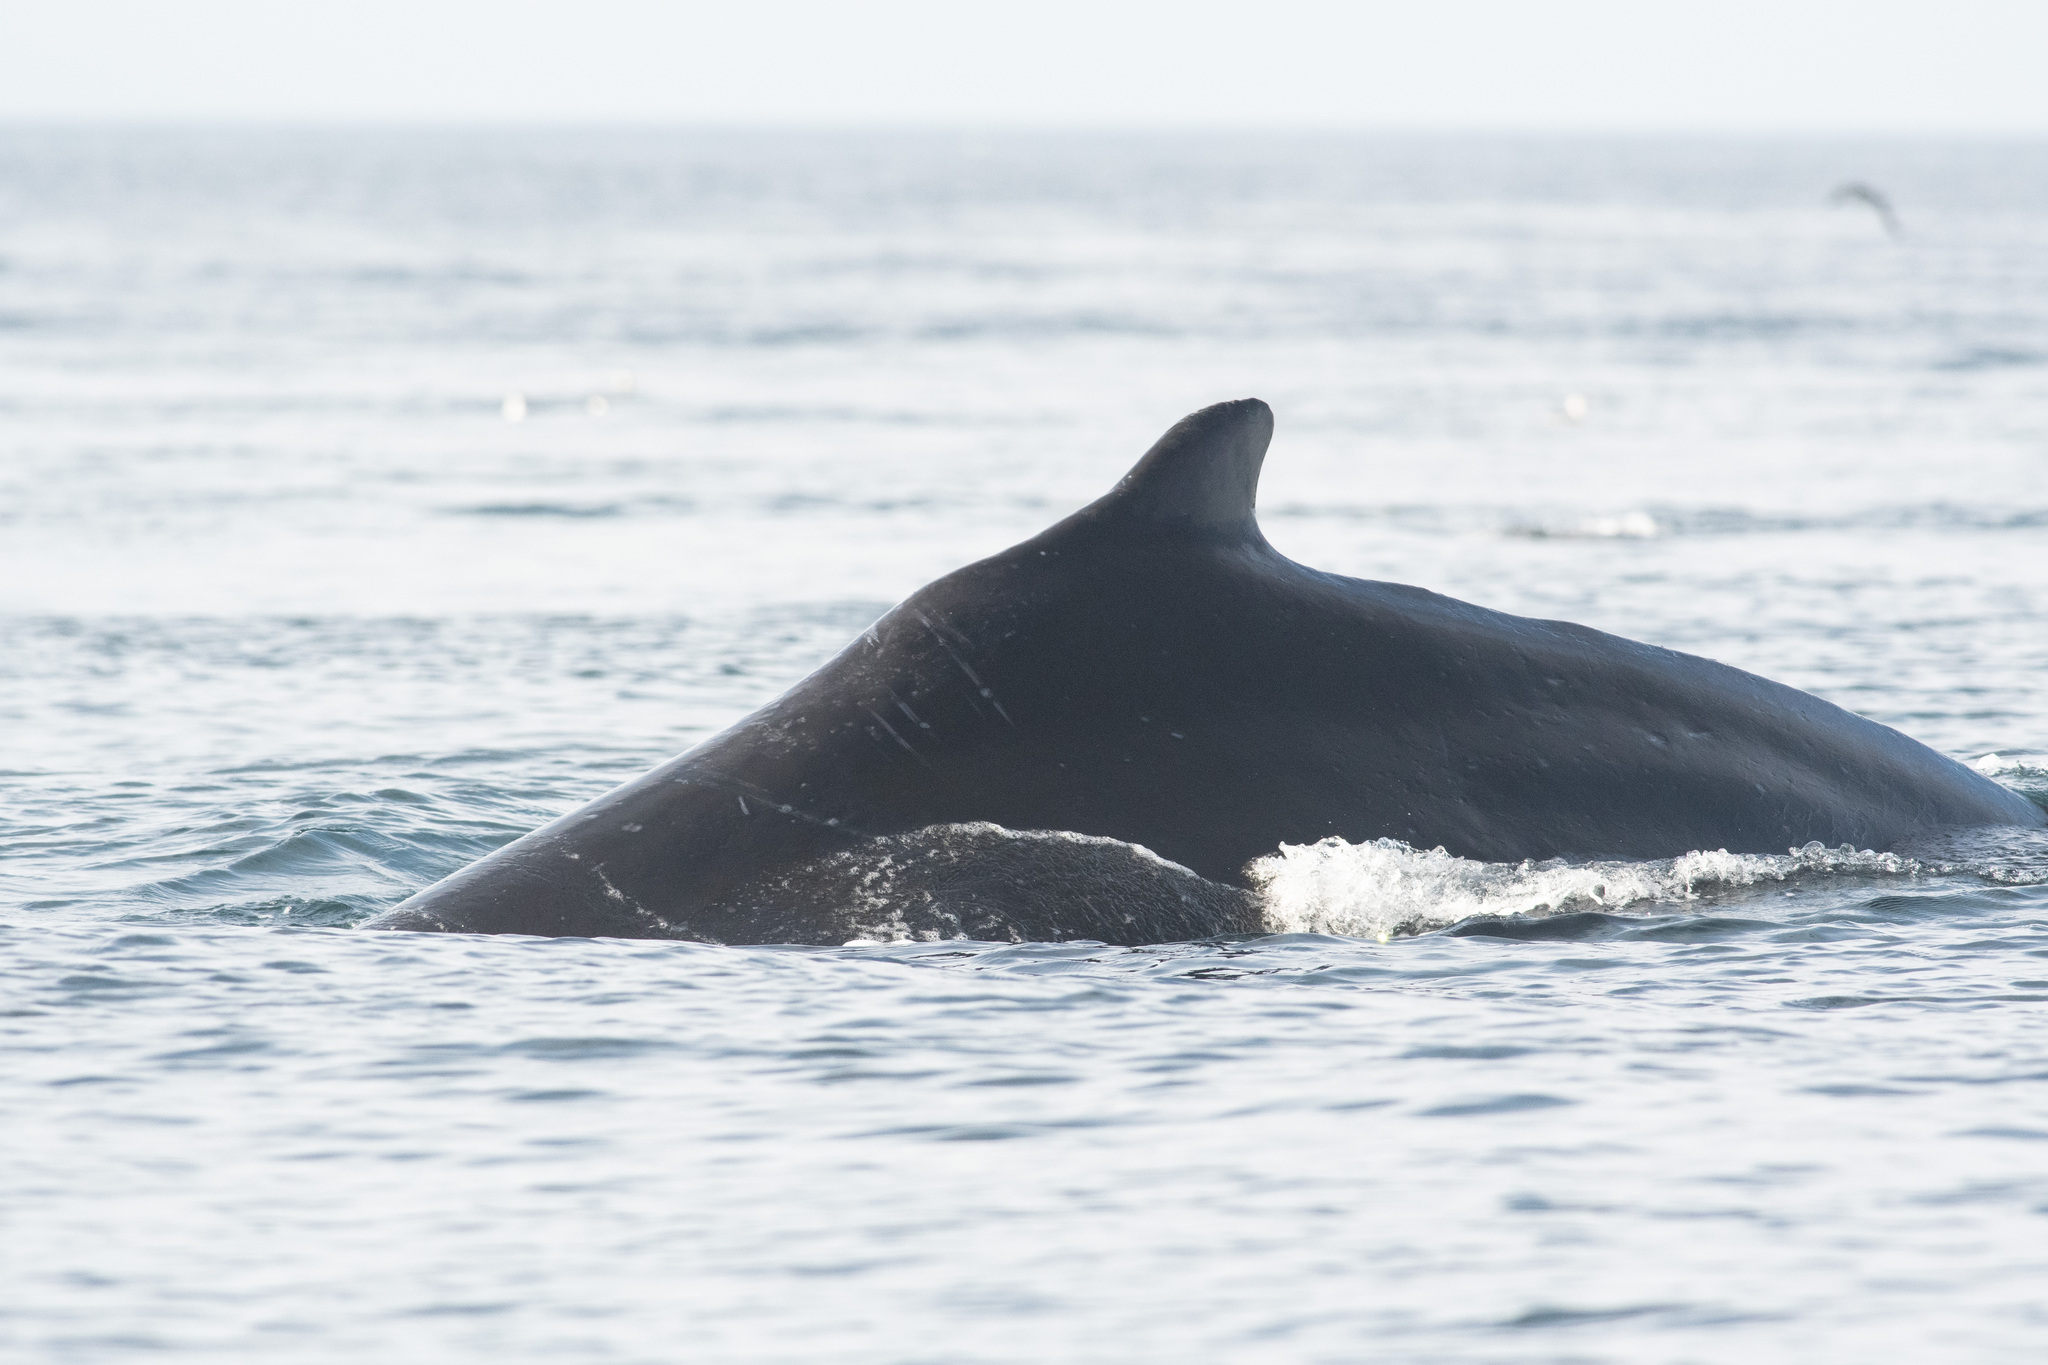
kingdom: Animalia
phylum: Chordata
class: Mammalia
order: Cetacea
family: Balaenopteridae
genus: Megaptera
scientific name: Megaptera novaeangliae
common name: Humpback whale
